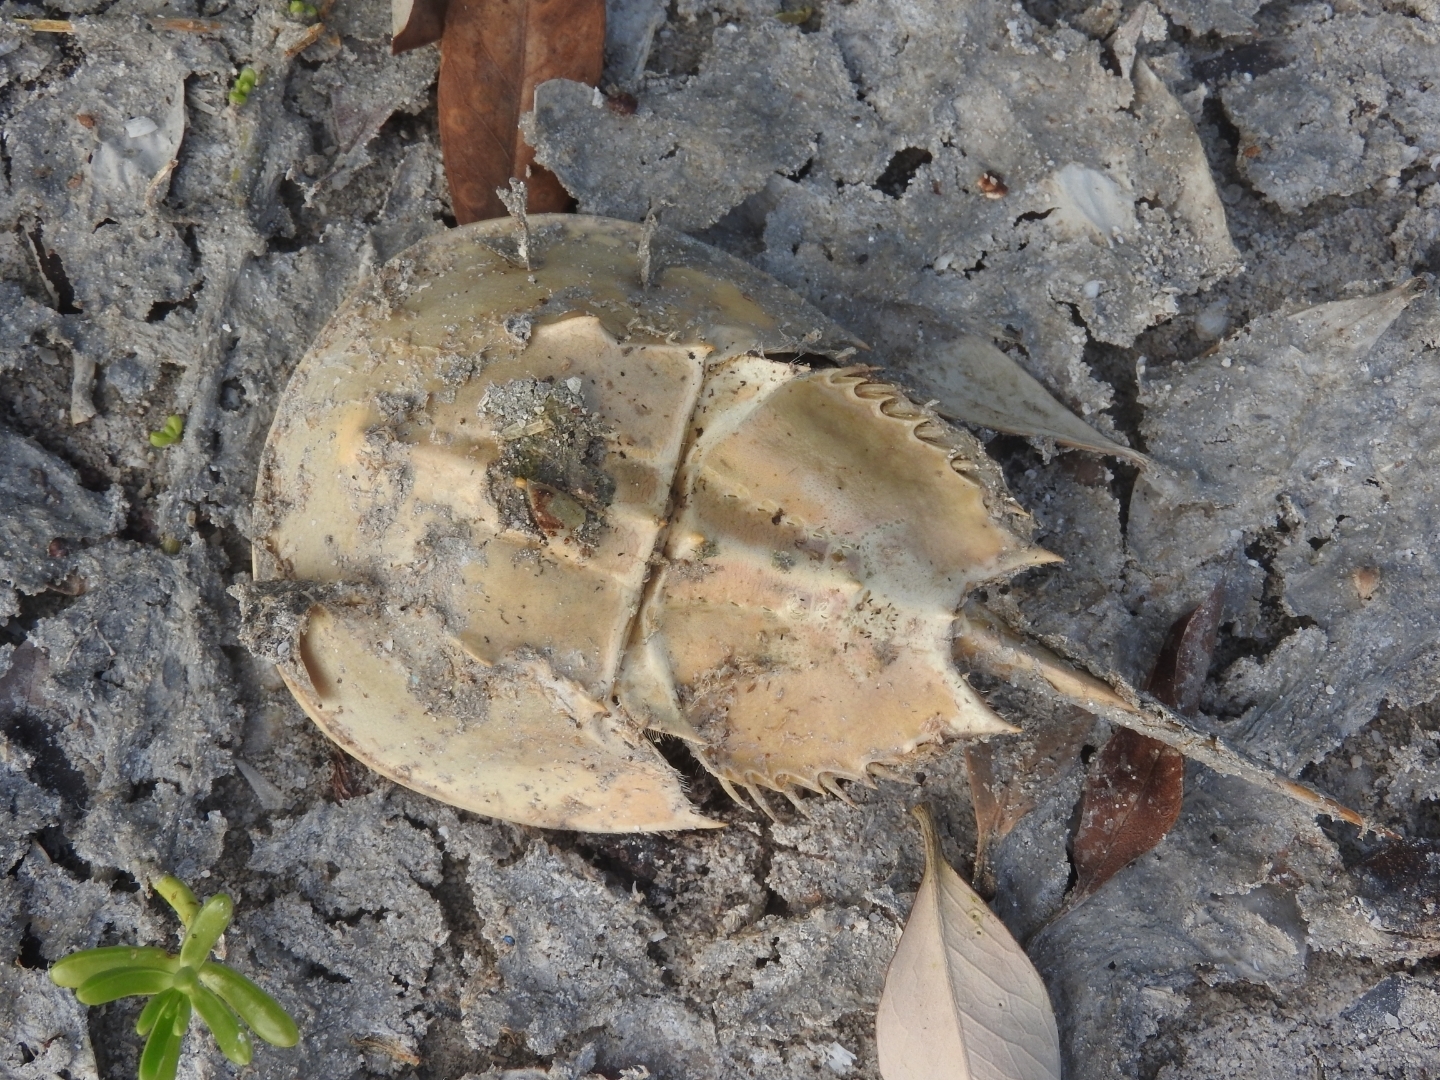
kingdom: Animalia
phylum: Arthropoda
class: Merostomata
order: Xiphosurida
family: Limulidae
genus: Limulus
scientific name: Limulus polyphemus
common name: Horseshoe crab
